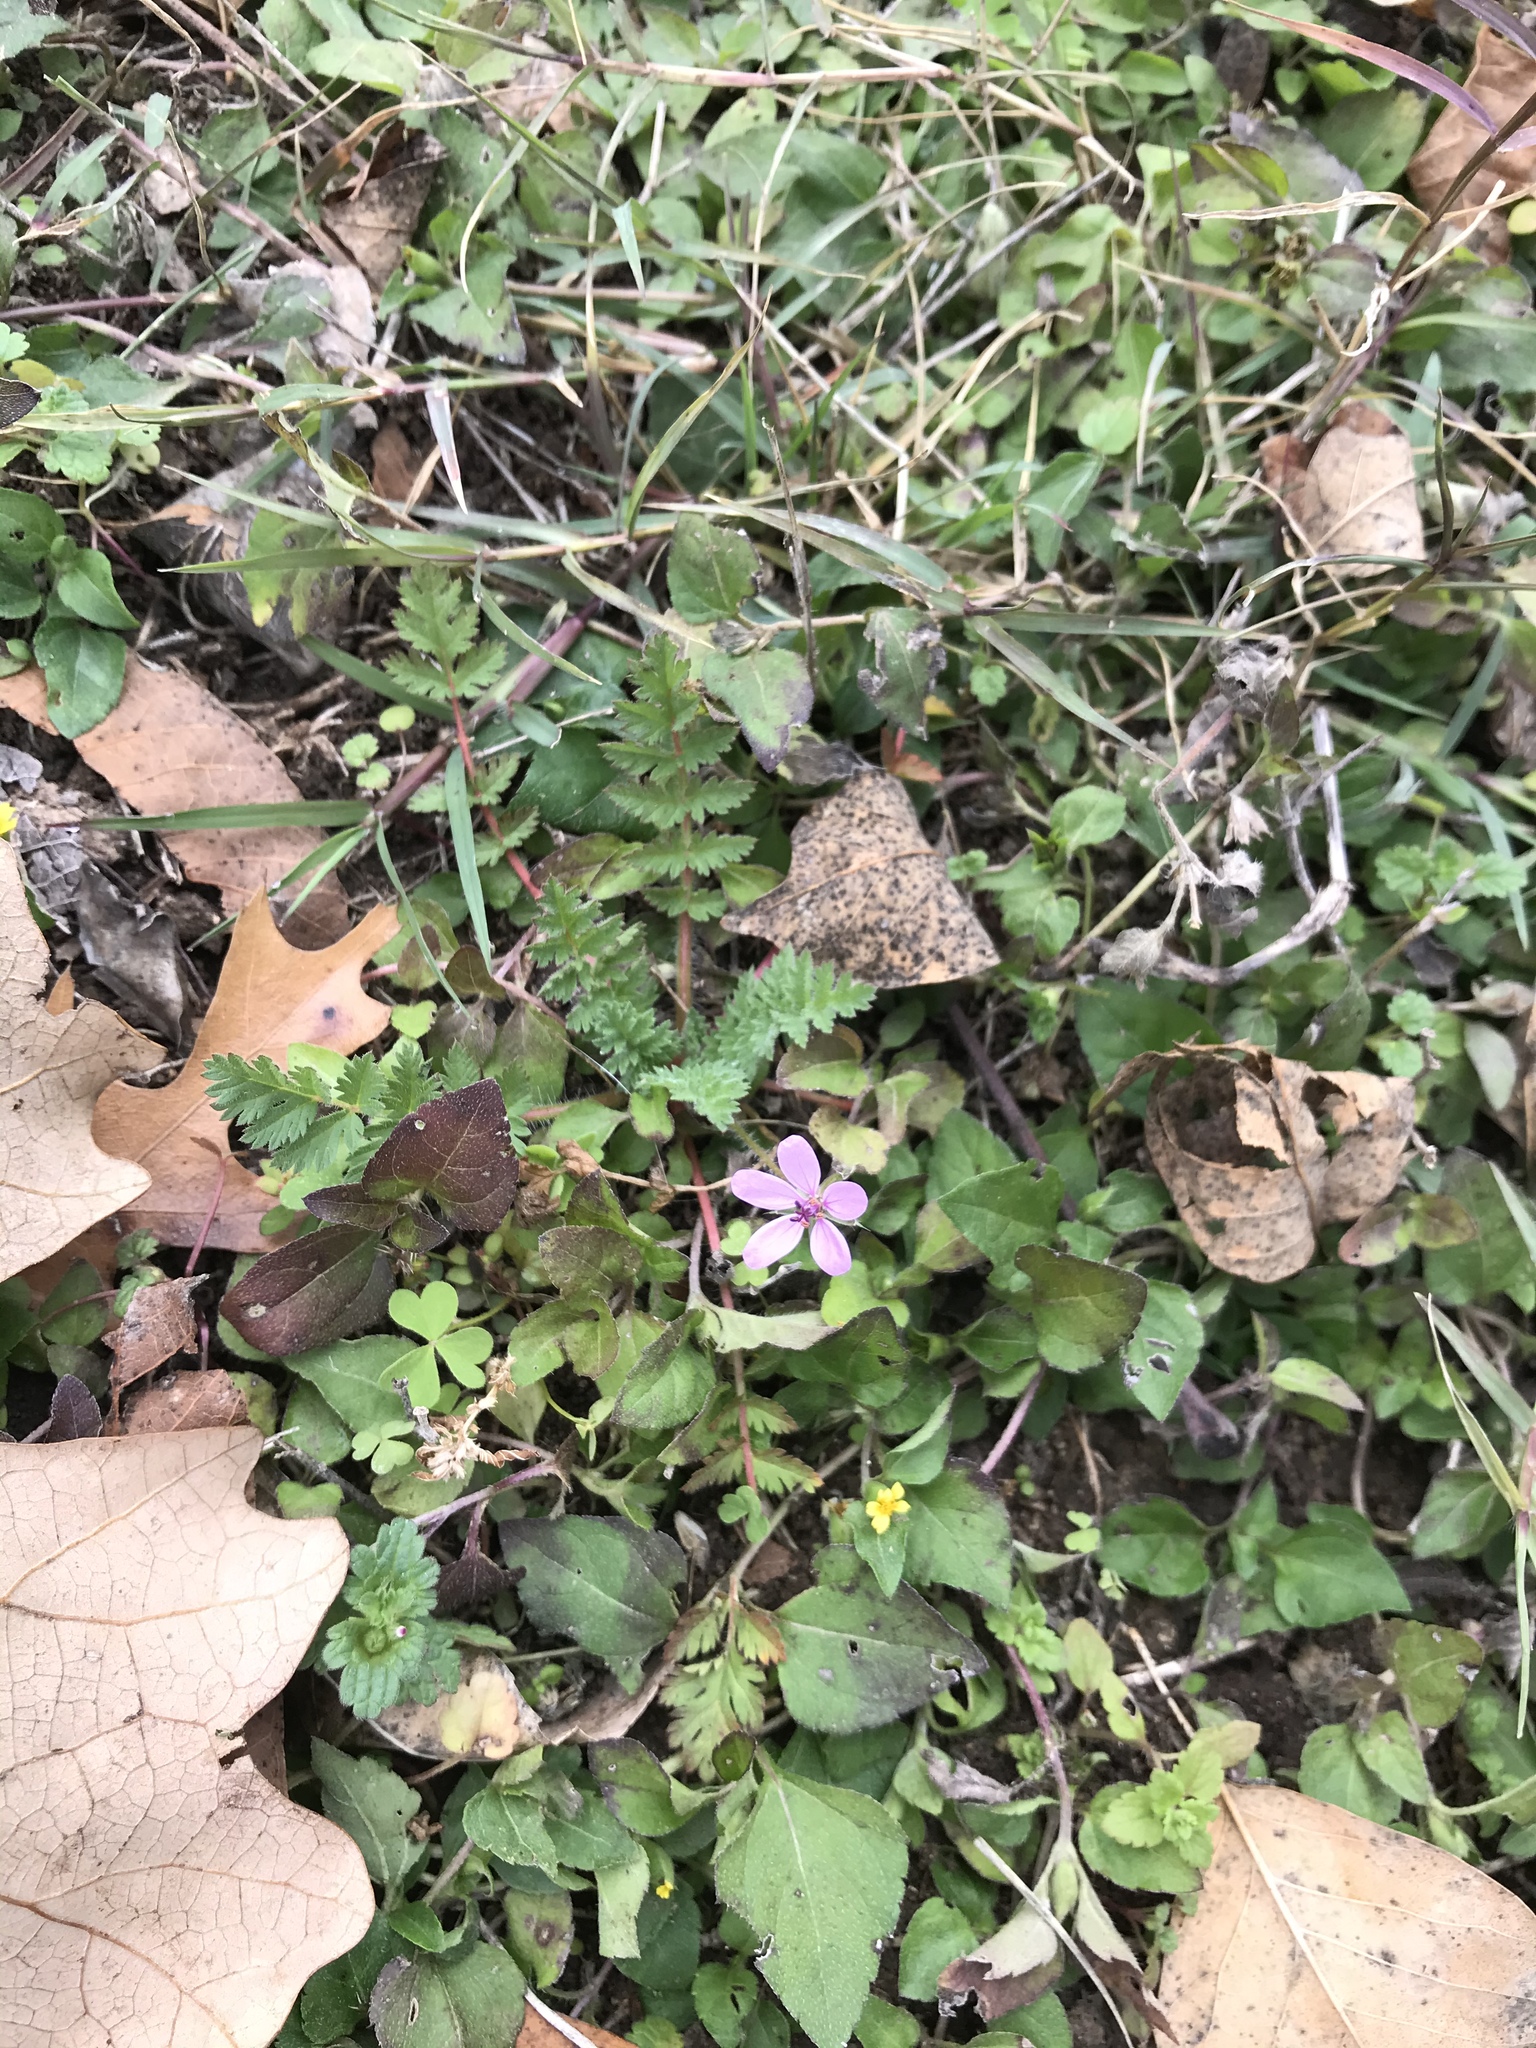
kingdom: Plantae
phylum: Tracheophyta
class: Magnoliopsida
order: Geraniales
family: Geraniaceae
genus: Erodium
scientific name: Erodium cicutarium
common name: Common stork's-bill
